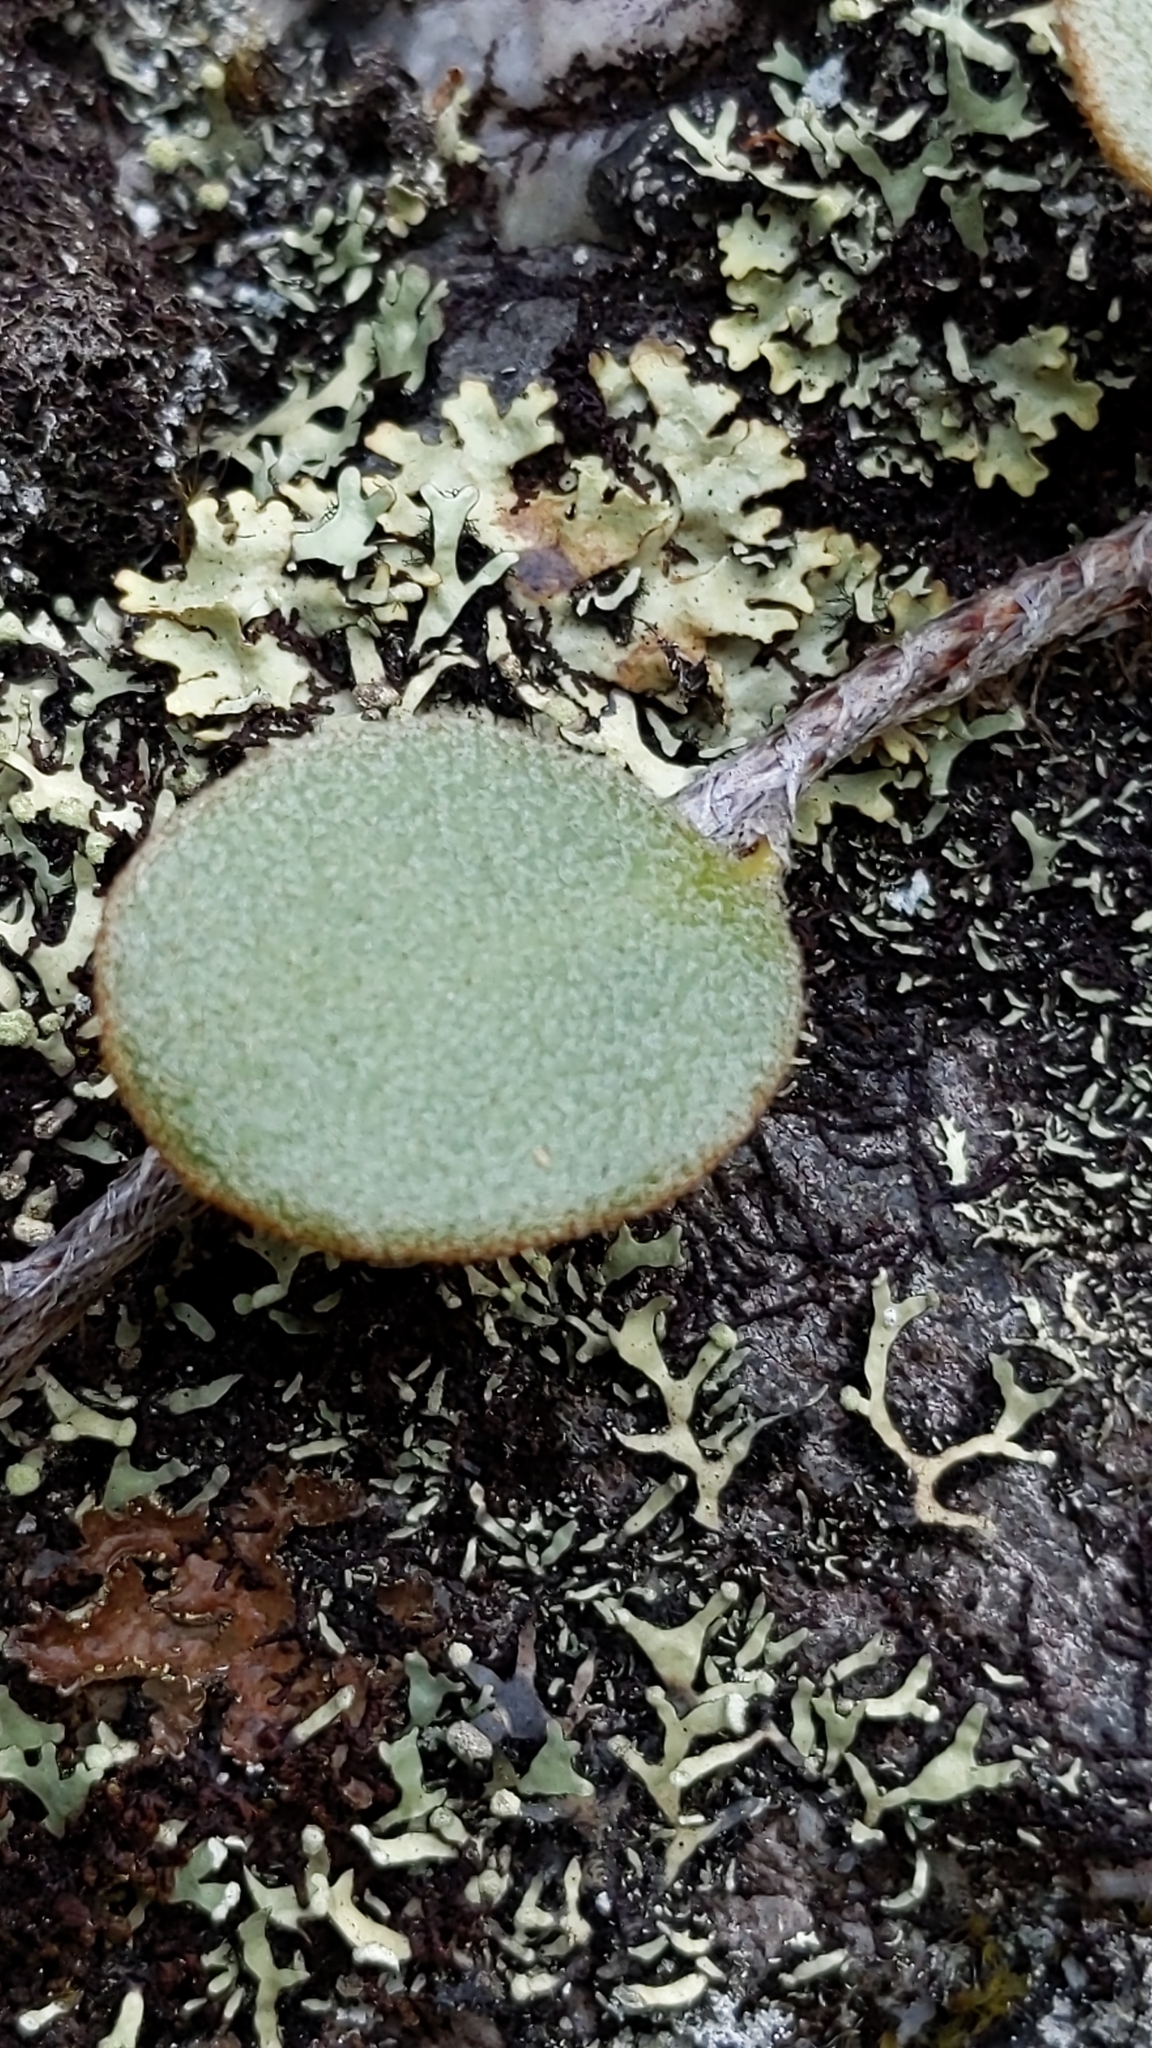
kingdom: Plantae
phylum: Tracheophyta
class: Polypodiopsida
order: Polypodiales
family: Polypodiaceae
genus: Pyrrosia
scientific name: Pyrrosia eleagnifolia
